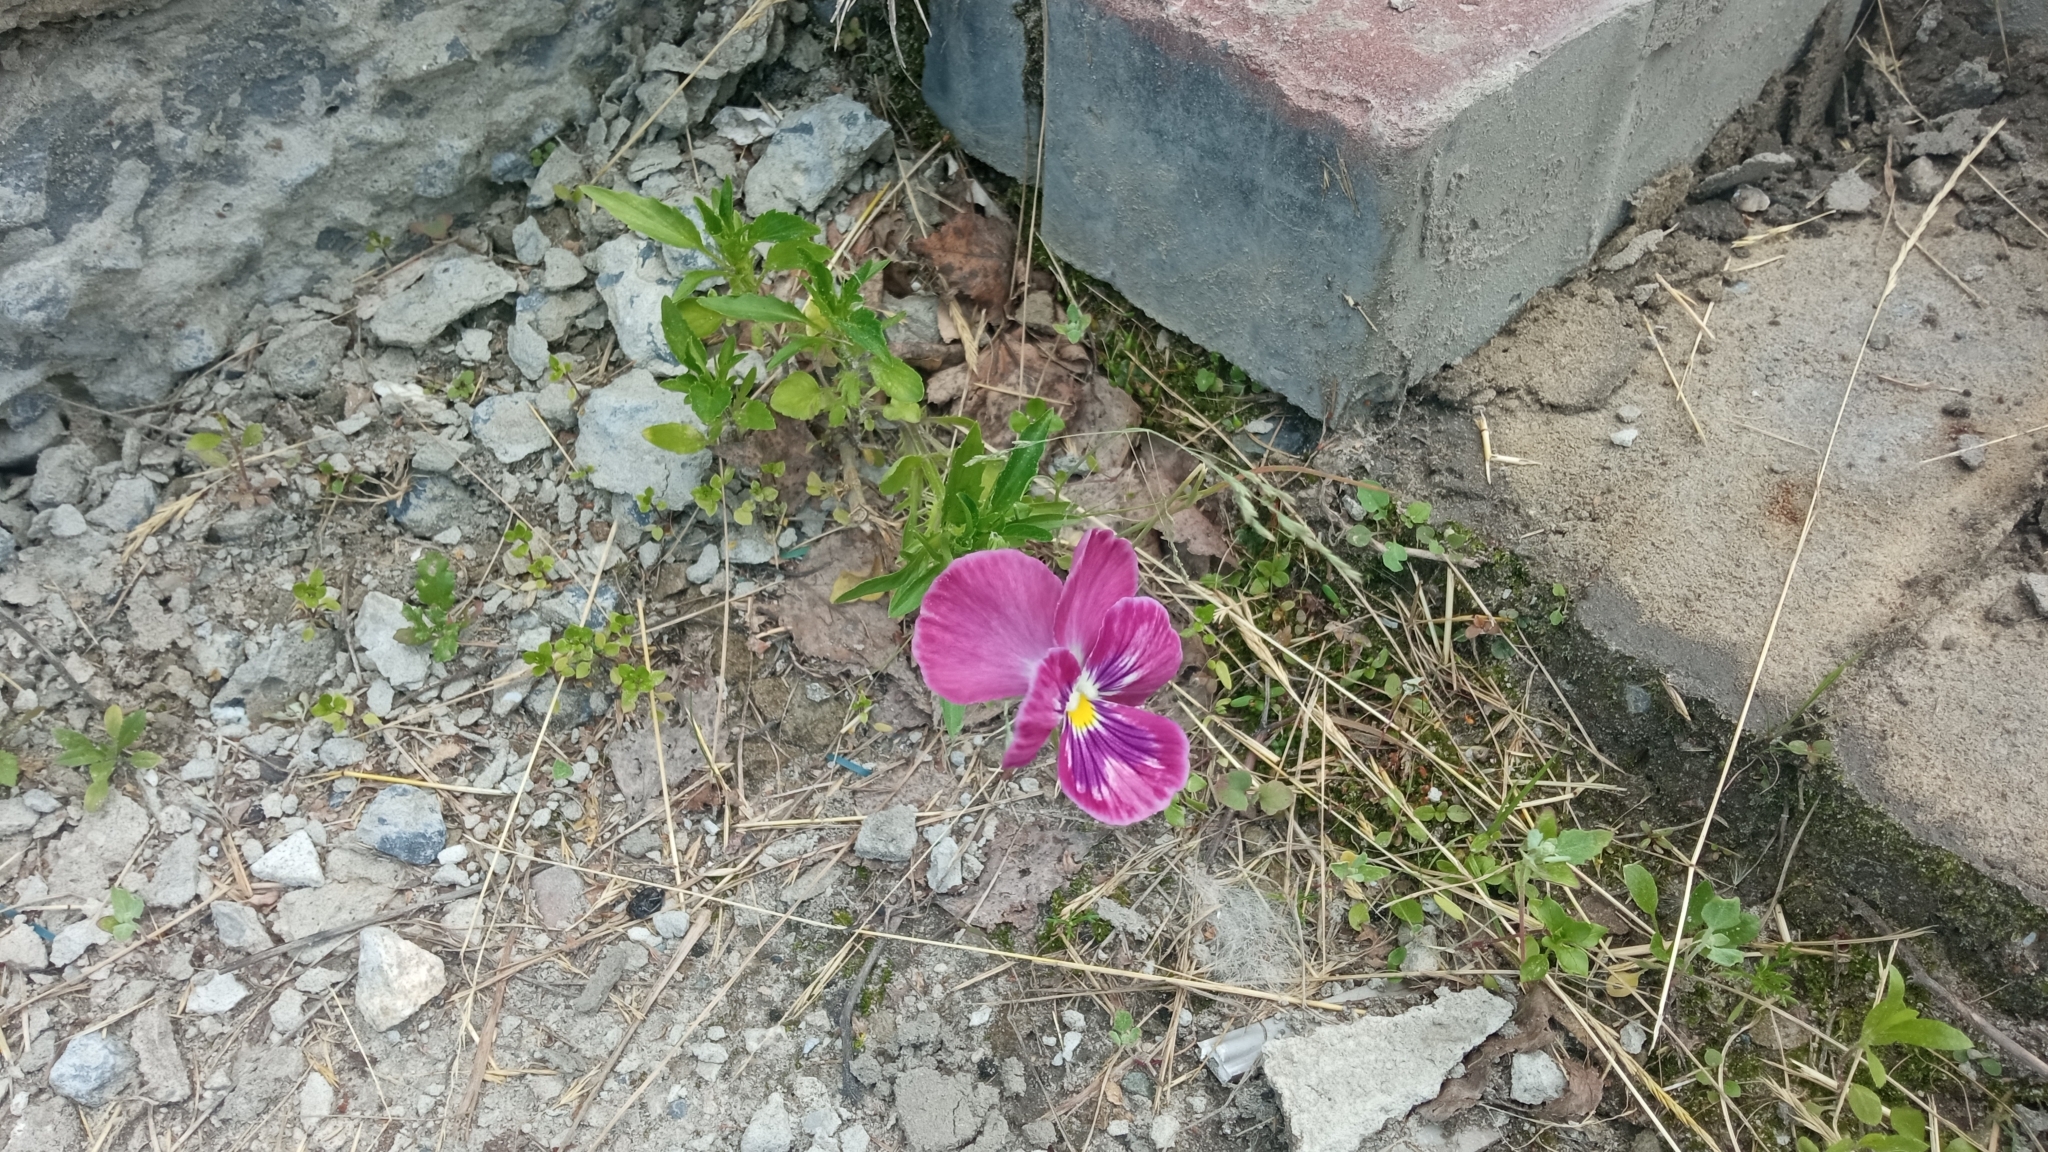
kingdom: Plantae
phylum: Tracheophyta
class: Magnoliopsida
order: Malpighiales
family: Violaceae
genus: Viola
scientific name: Viola wittrockiana
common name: Garden pansy
